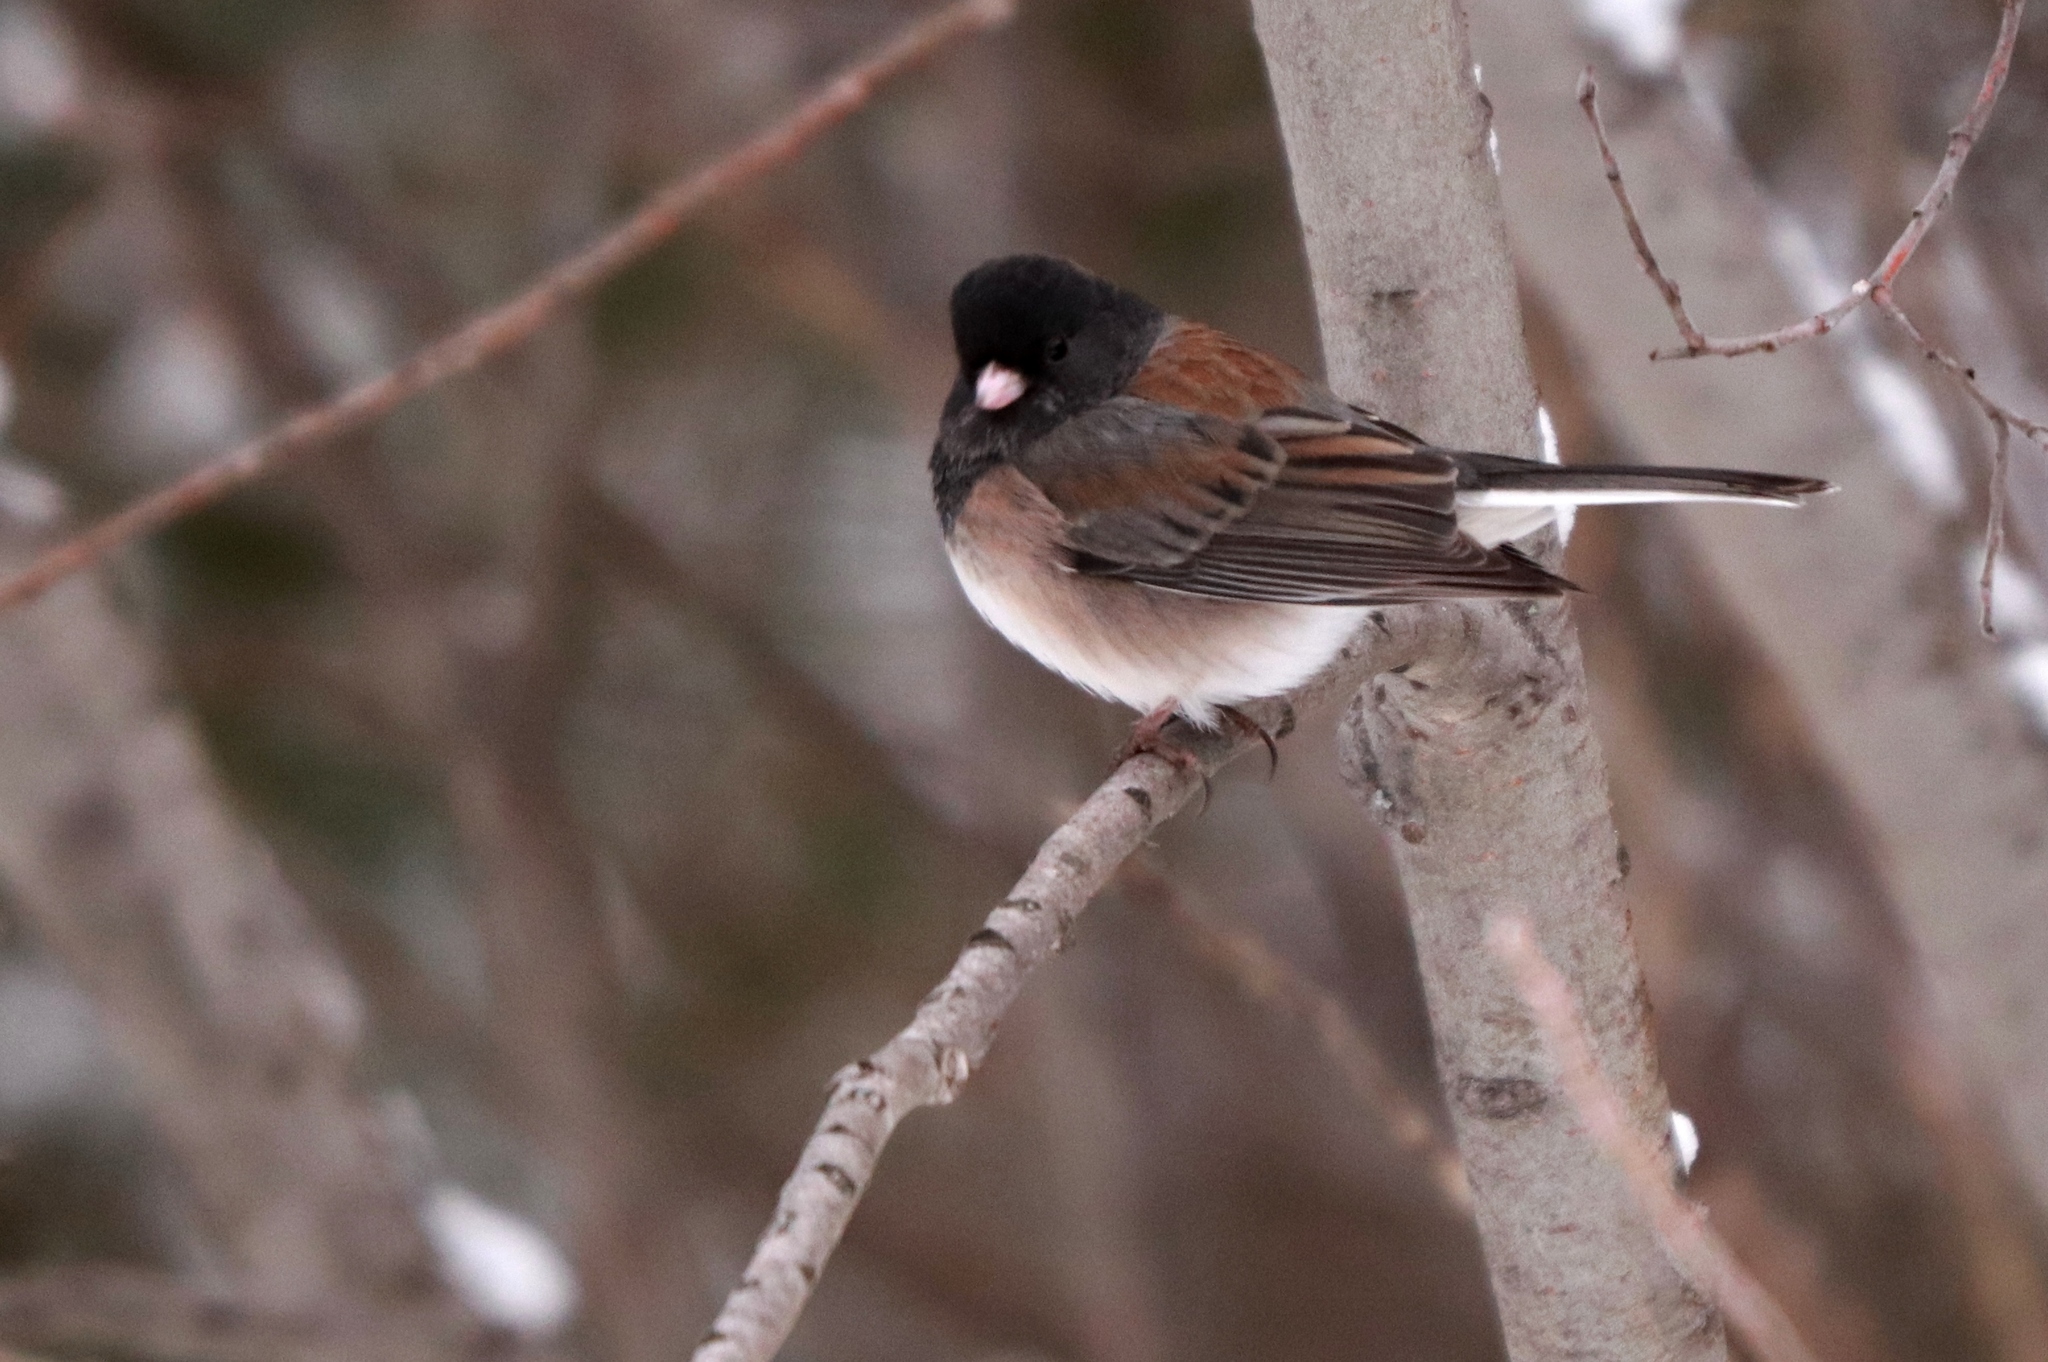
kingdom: Animalia
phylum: Chordata
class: Aves
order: Passeriformes
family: Passerellidae
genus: Junco
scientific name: Junco hyemalis
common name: Dark-eyed junco
